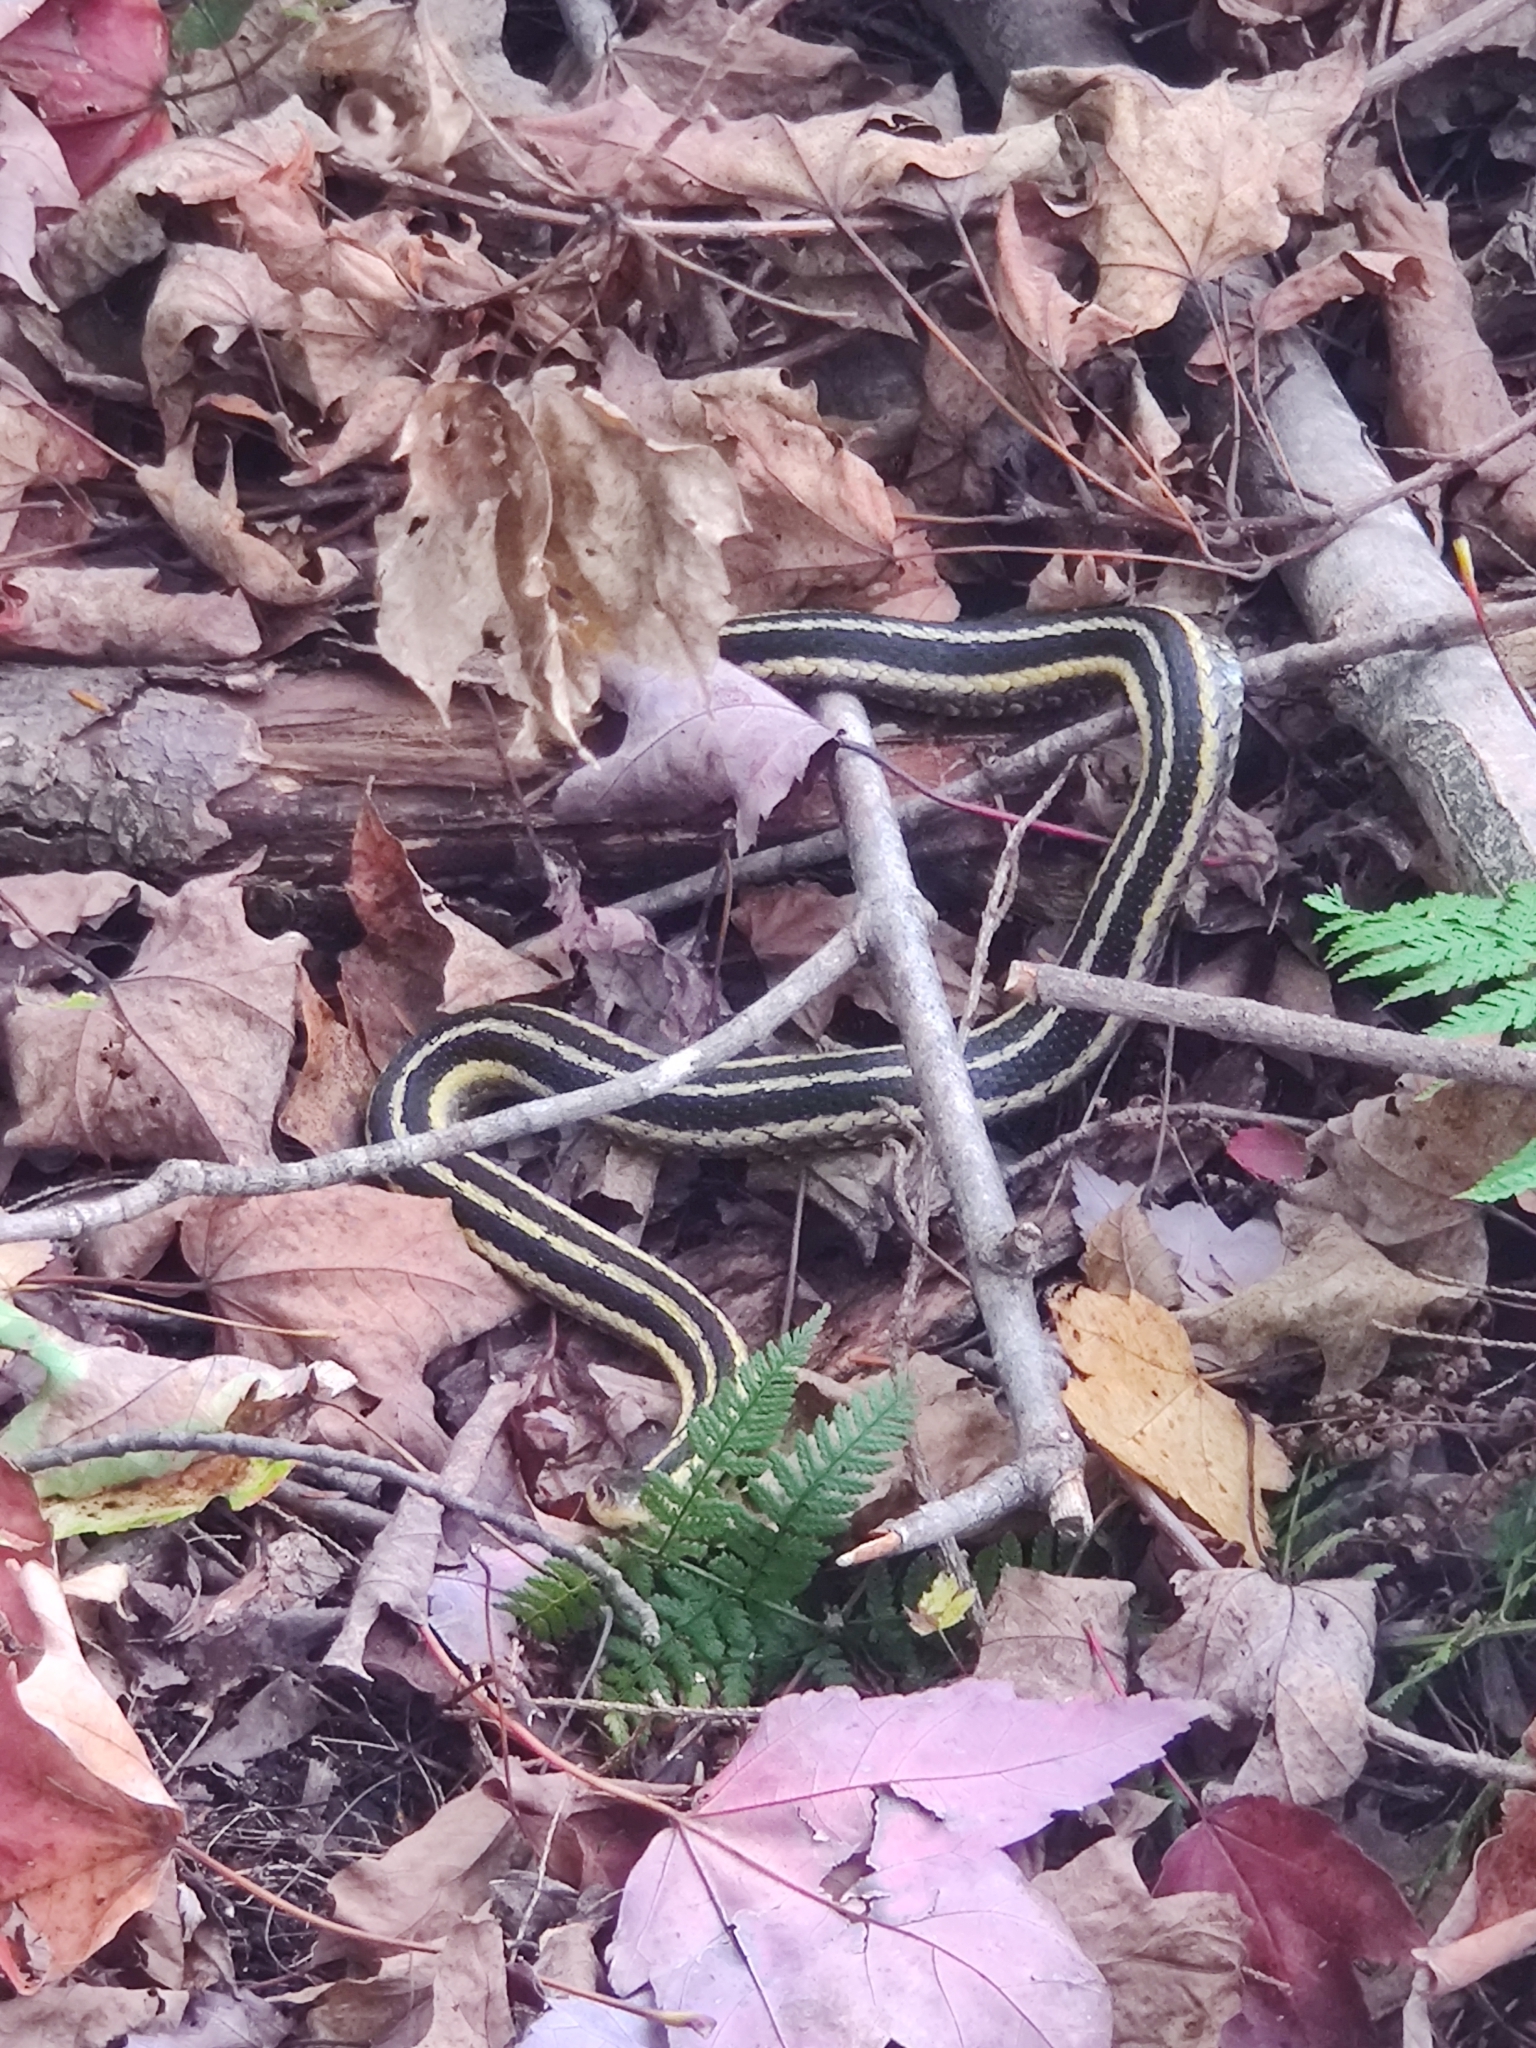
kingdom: Animalia
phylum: Chordata
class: Squamata
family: Colubridae
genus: Thamnophis
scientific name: Thamnophis sirtalis
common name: Common garter snake
